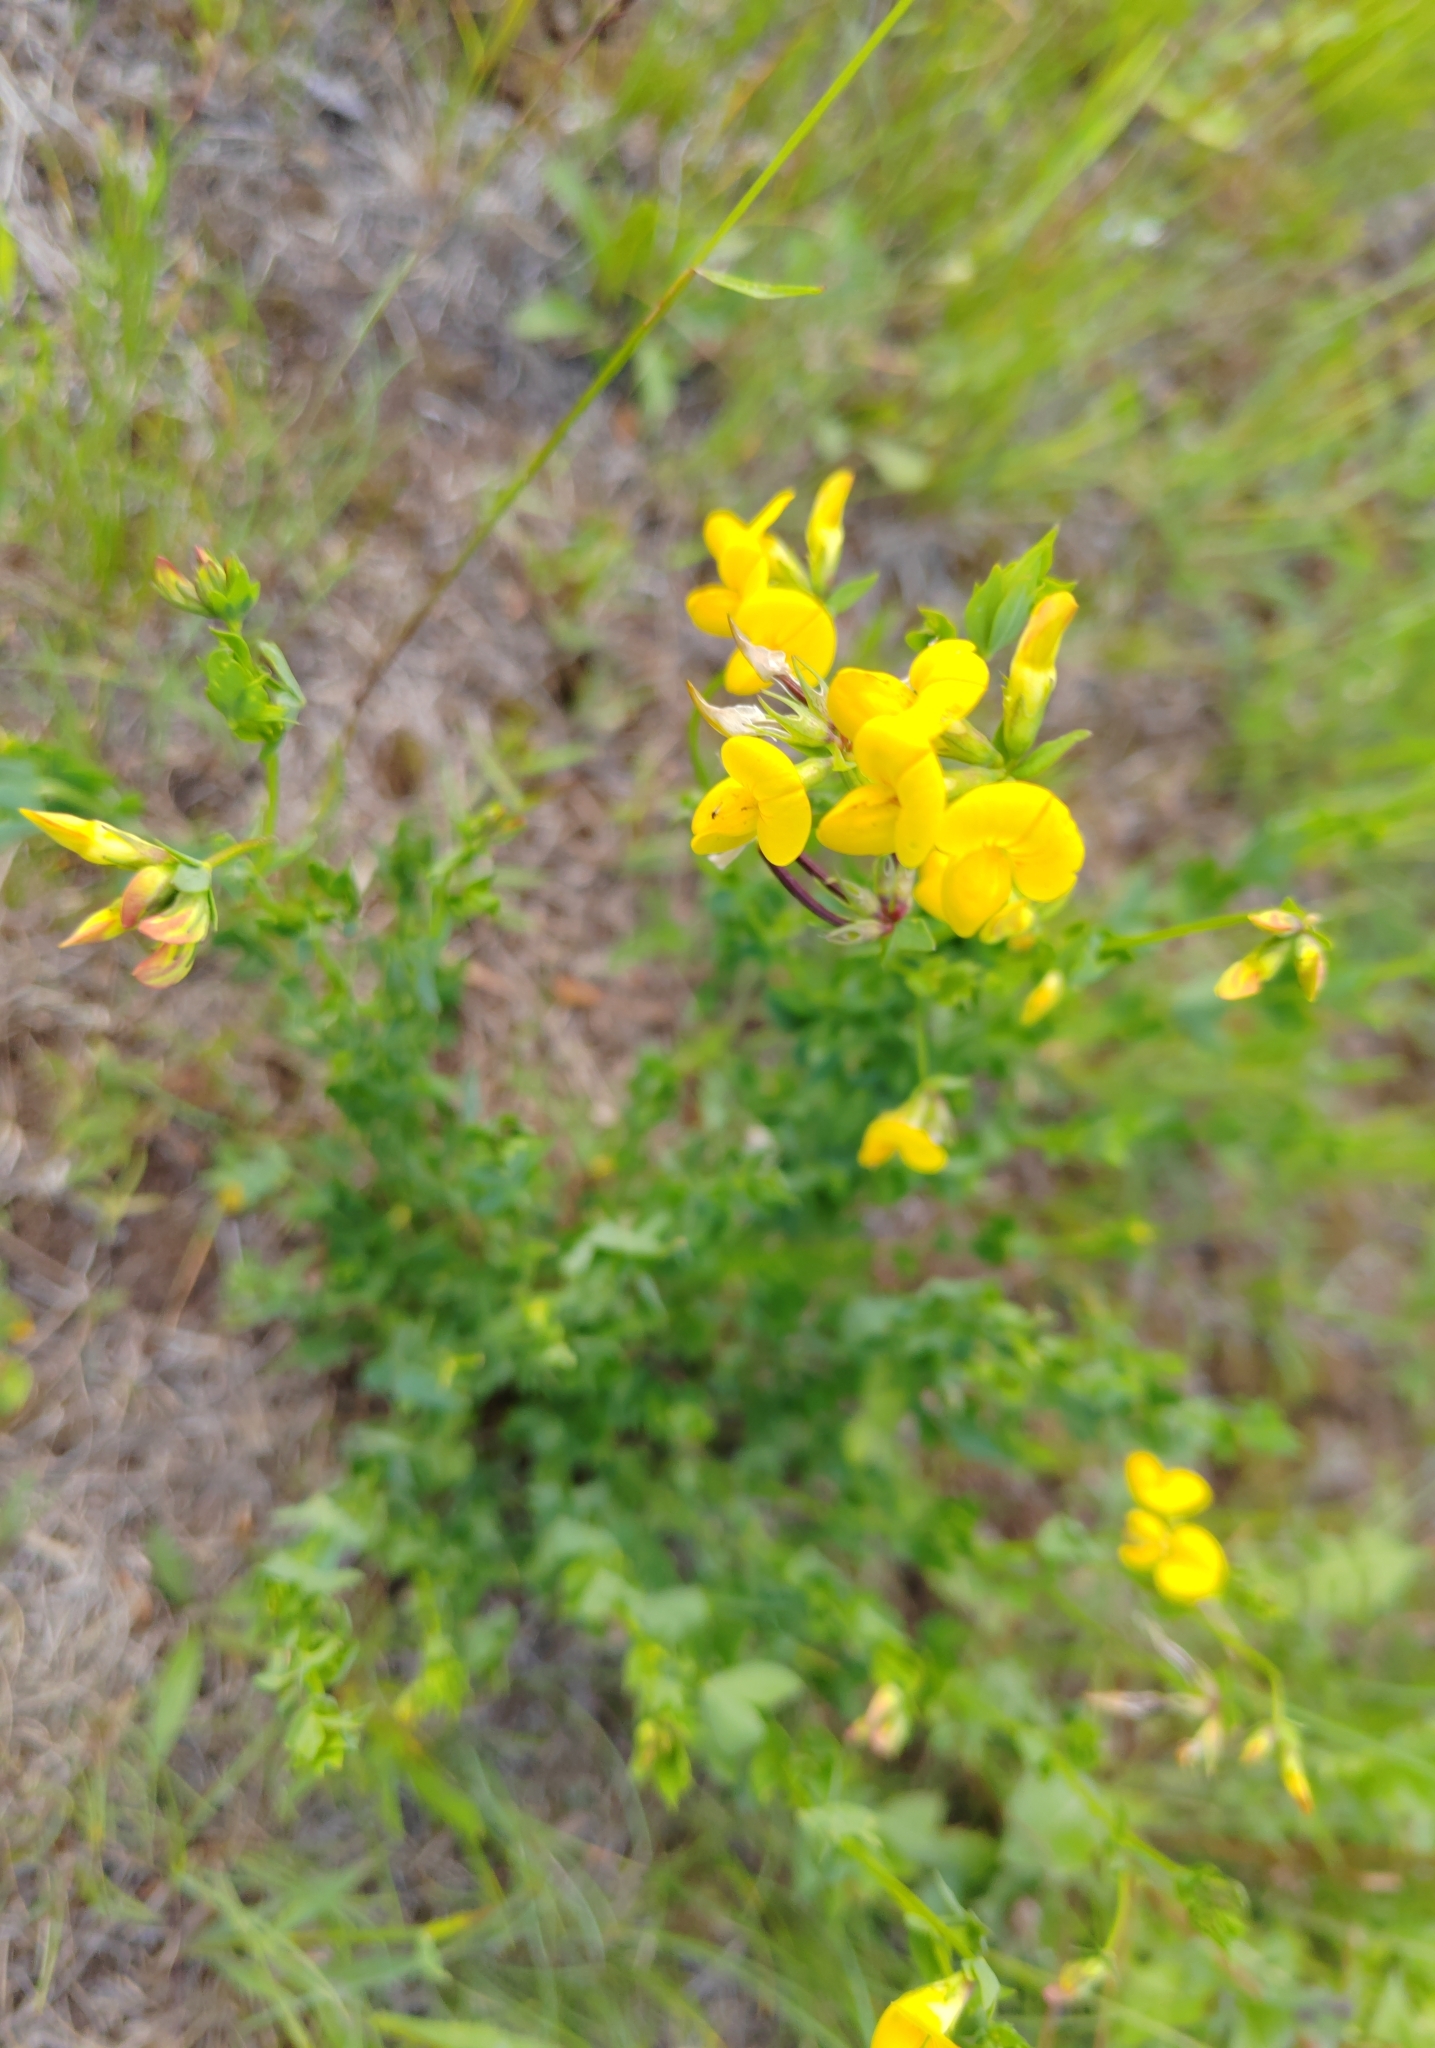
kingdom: Plantae
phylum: Tracheophyta
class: Magnoliopsida
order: Fabales
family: Fabaceae
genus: Lotus
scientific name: Lotus corniculatus
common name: Common bird's-foot-trefoil
